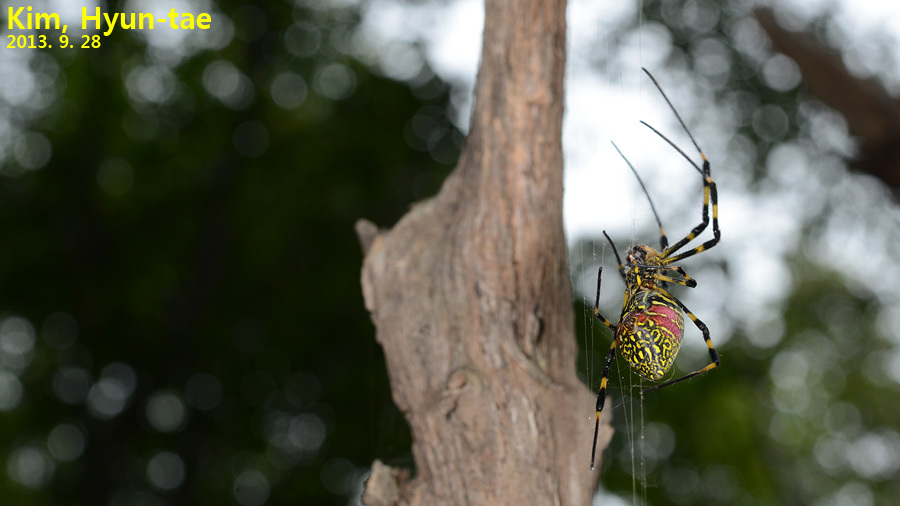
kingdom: Animalia
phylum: Arthropoda
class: Arachnida
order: Araneae
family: Araneidae
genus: Trichonephila
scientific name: Trichonephila clavata
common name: Jorō spider
